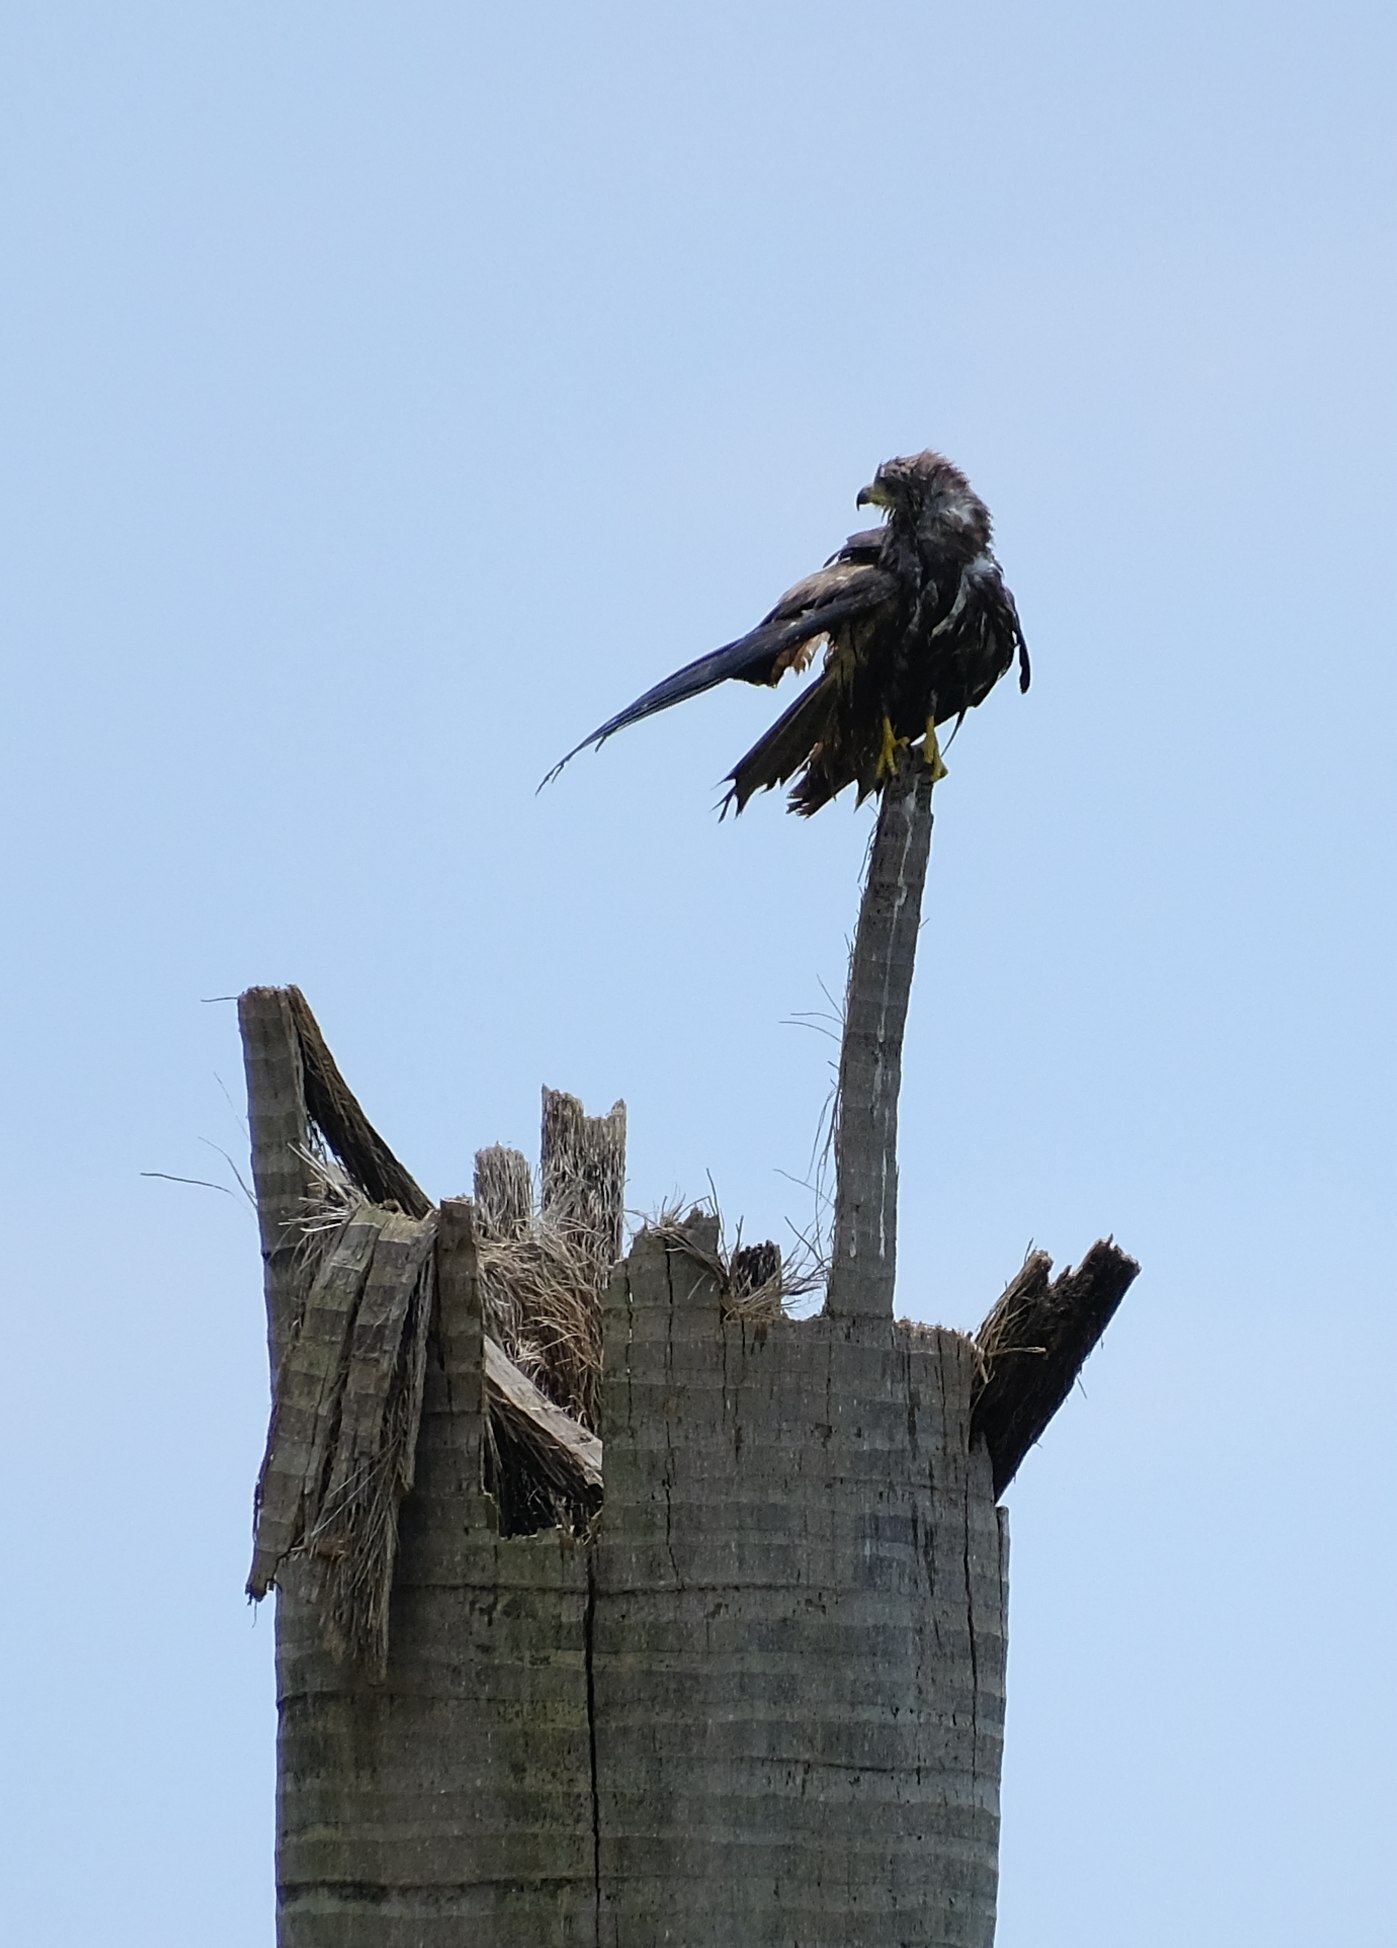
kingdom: Animalia
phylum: Chordata
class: Aves
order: Accipitriformes
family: Accipitridae
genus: Milvus
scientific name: Milvus migrans
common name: Black kite
